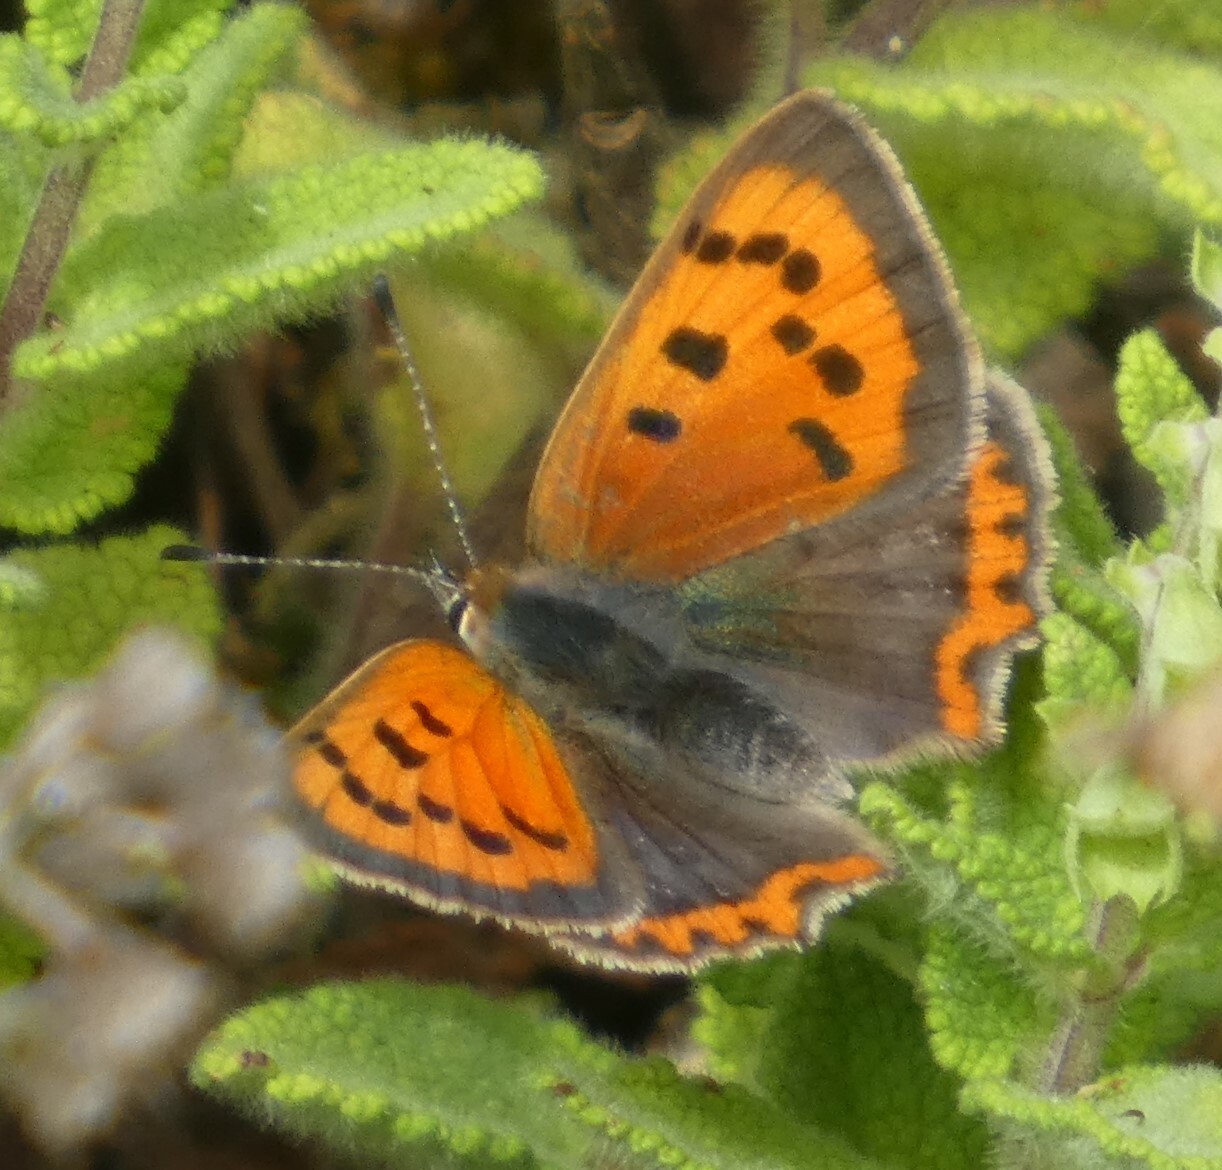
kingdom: Animalia
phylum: Arthropoda
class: Insecta
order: Lepidoptera
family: Lycaenidae
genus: Lycaena
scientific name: Lycaena phlaeas
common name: Small copper
